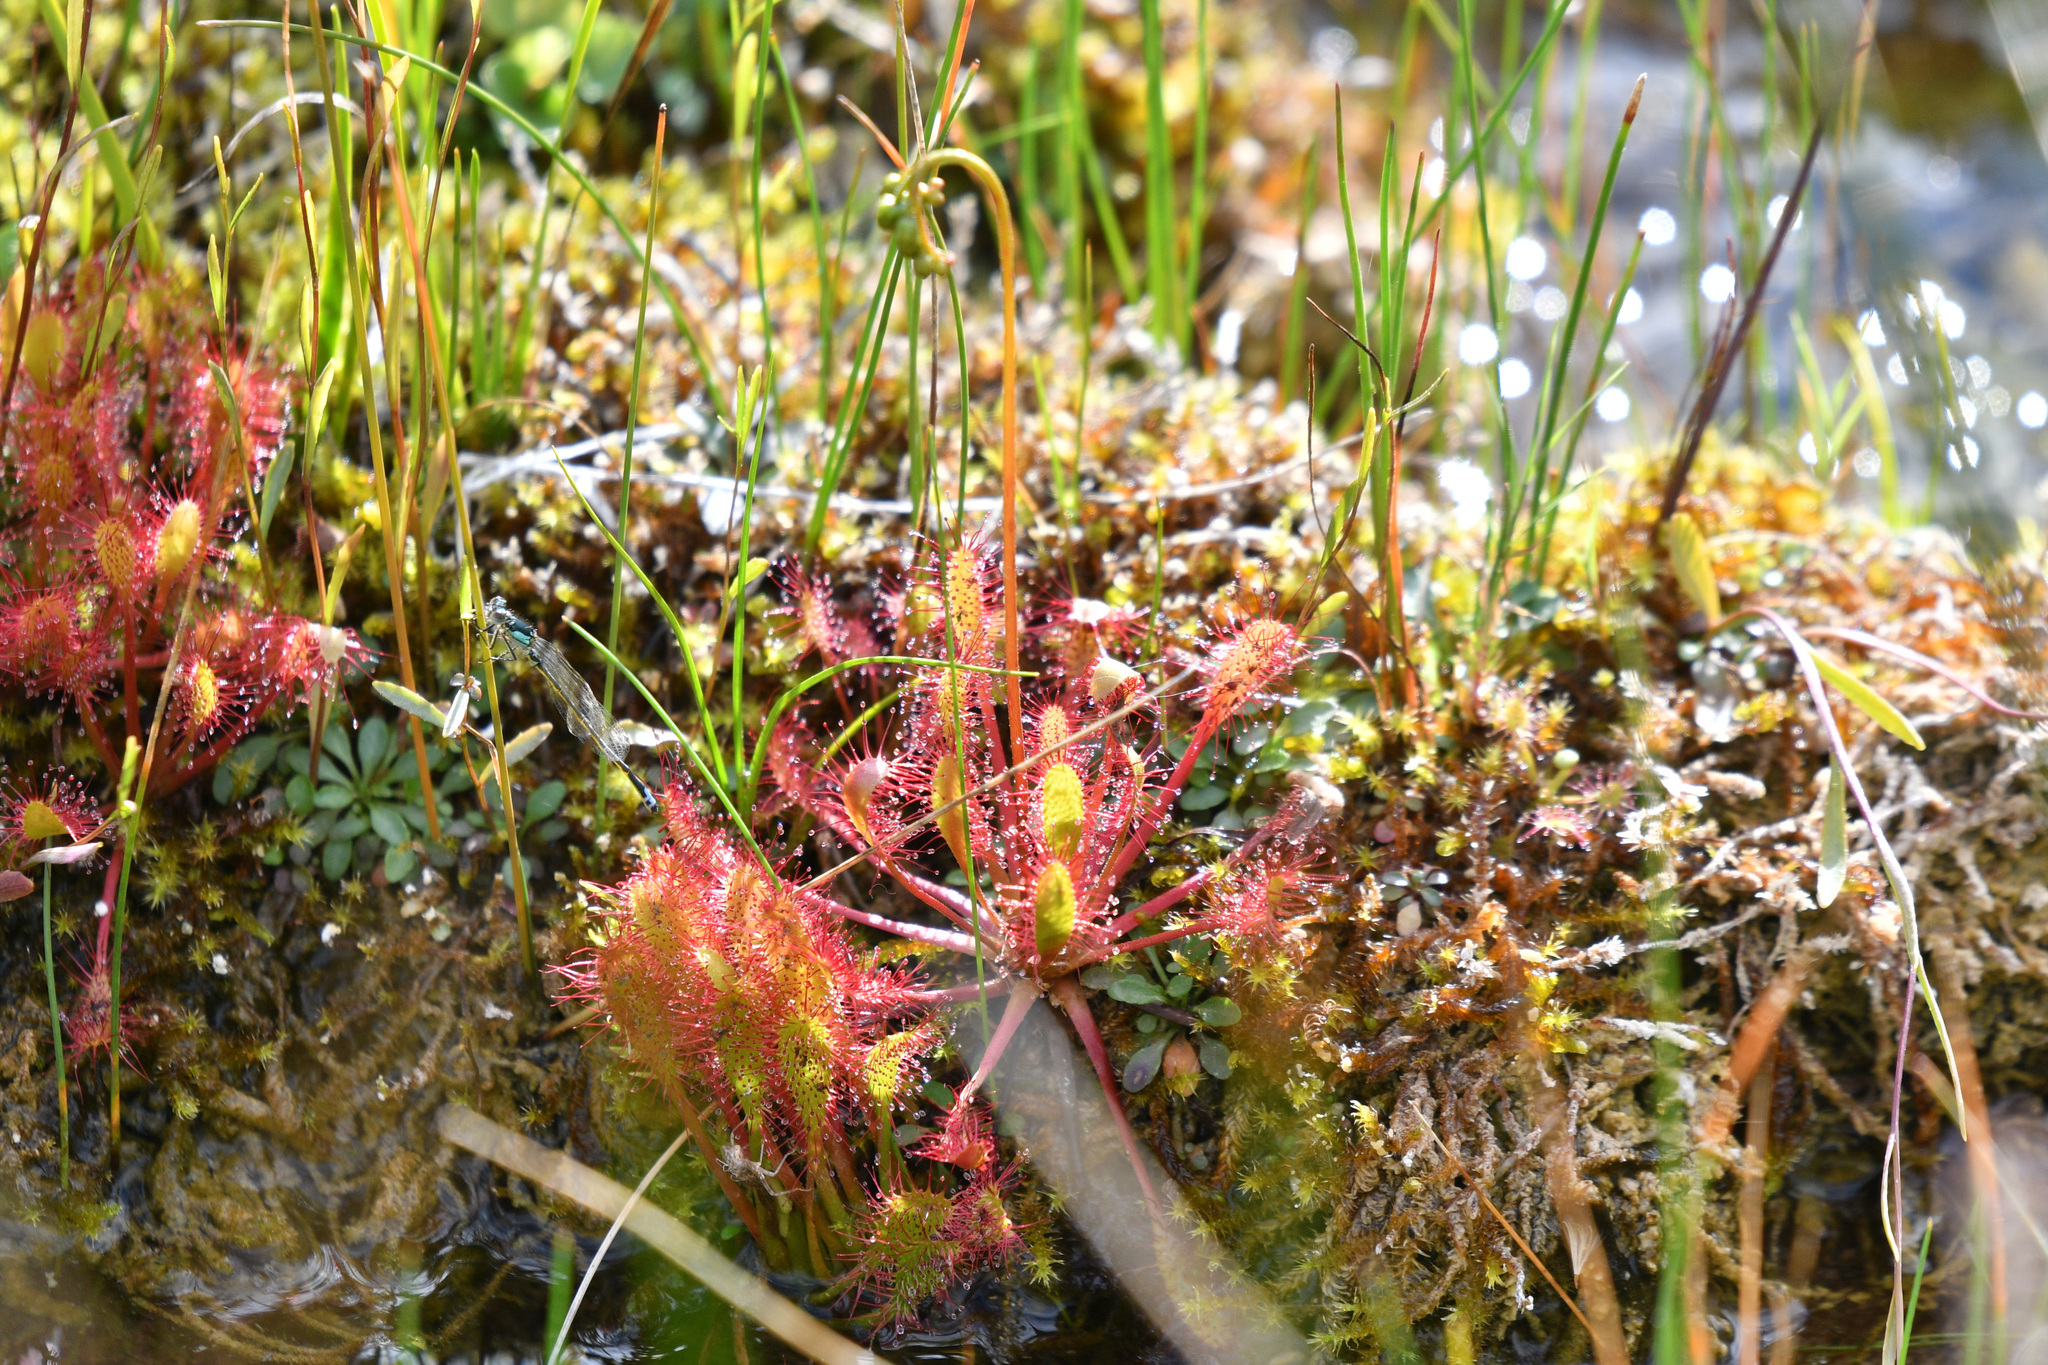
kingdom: Plantae
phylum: Tracheophyta
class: Magnoliopsida
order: Caryophyllales
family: Droseraceae
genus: Drosera
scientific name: Drosera anglica
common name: Great sundew
